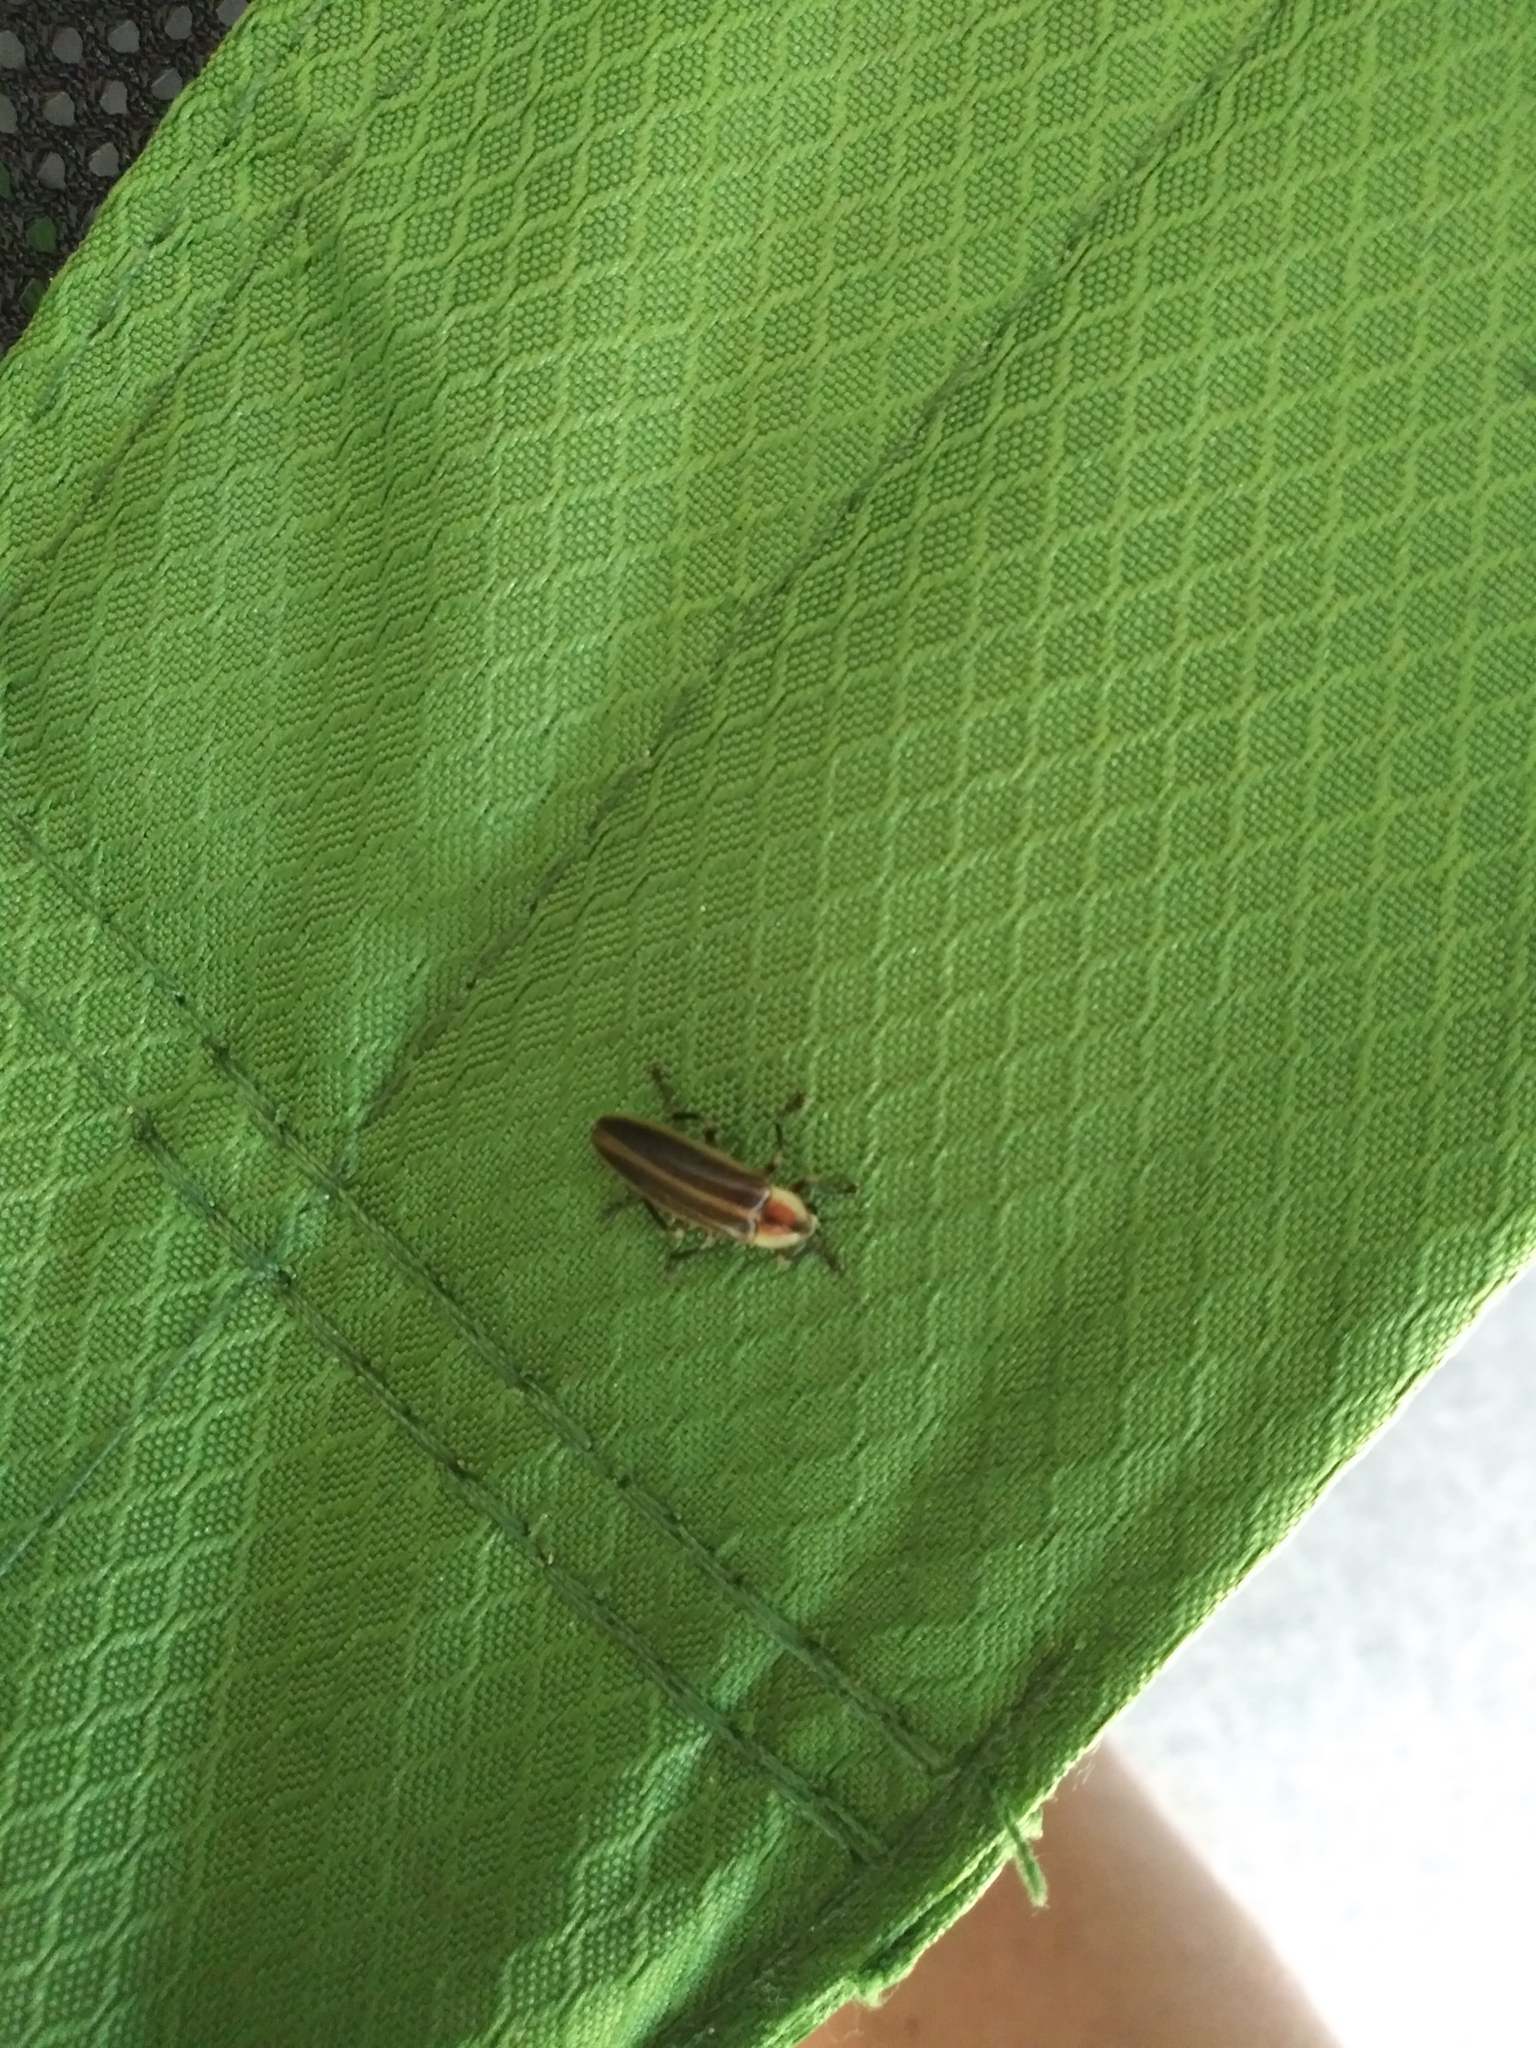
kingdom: Animalia
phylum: Arthropoda
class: Insecta
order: Coleoptera
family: Lampyridae
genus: Photuris
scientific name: Photuris
